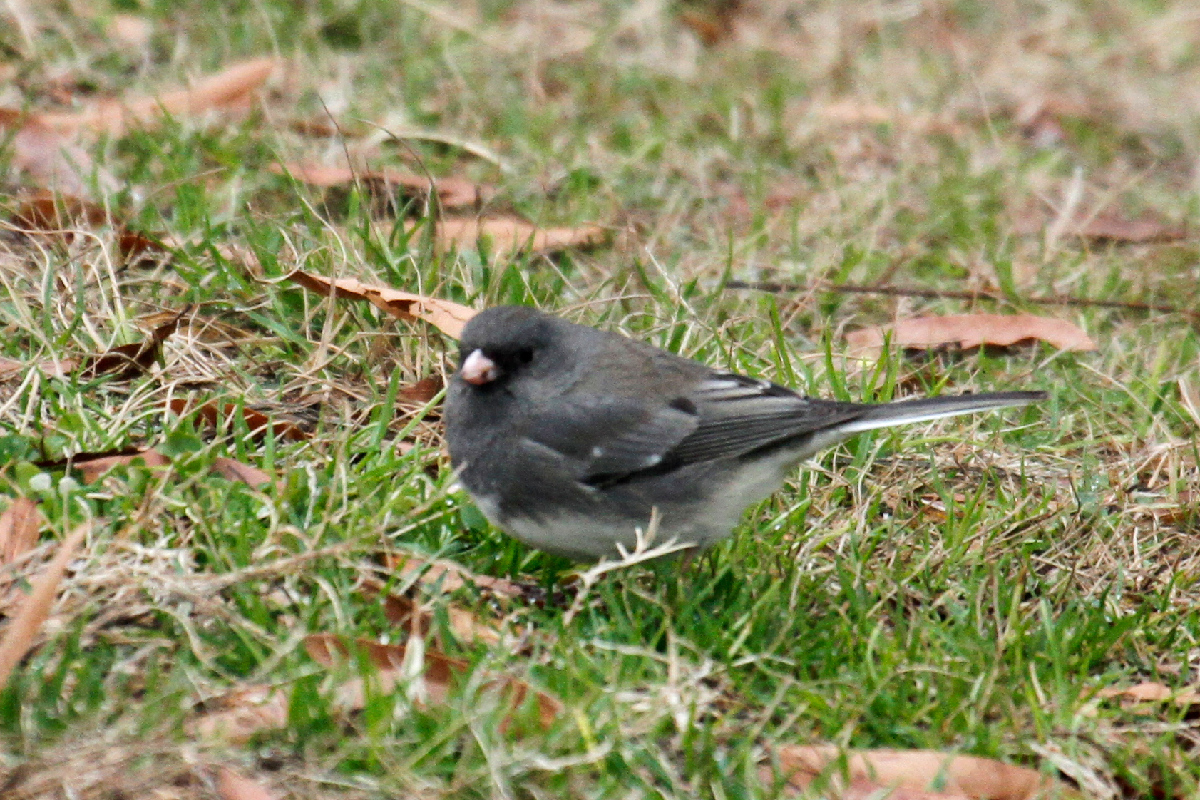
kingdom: Animalia
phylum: Chordata
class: Aves
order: Passeriformes
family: Passerellidae
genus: Junco
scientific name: Junco hyemalis
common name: Dark-eyed junco
